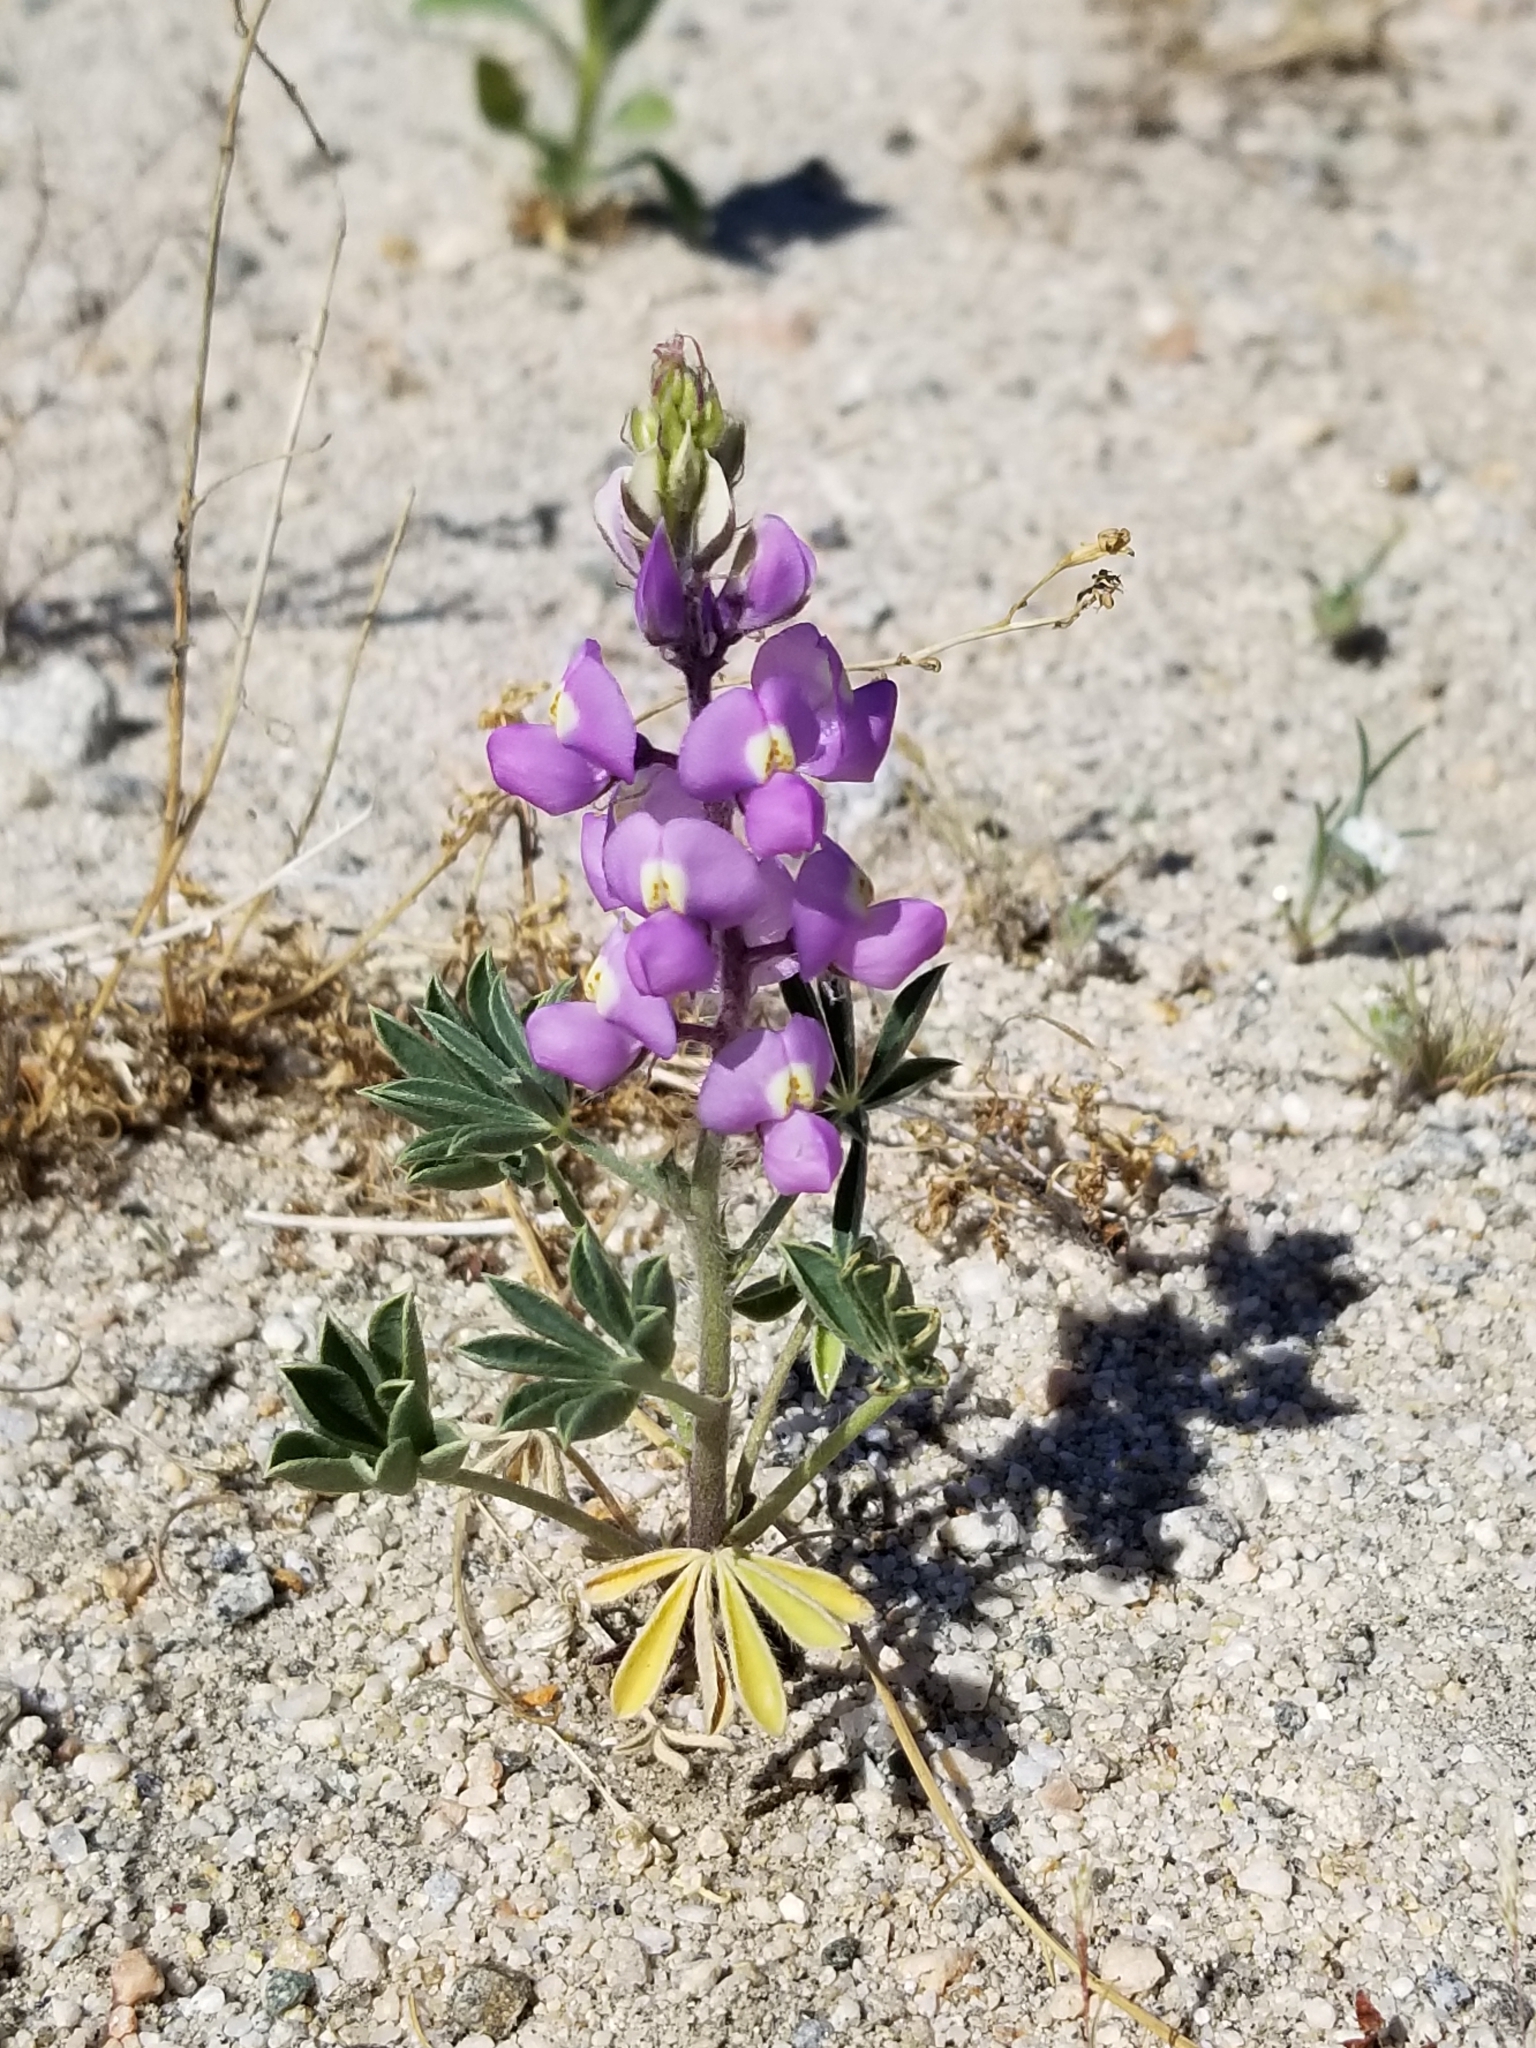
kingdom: Plantae
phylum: Tracheophyta
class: Magnoliopsida
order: Fabales
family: Fabaceae
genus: Lupinus
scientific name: Lupinus arizonicus
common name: Arizona lupine
